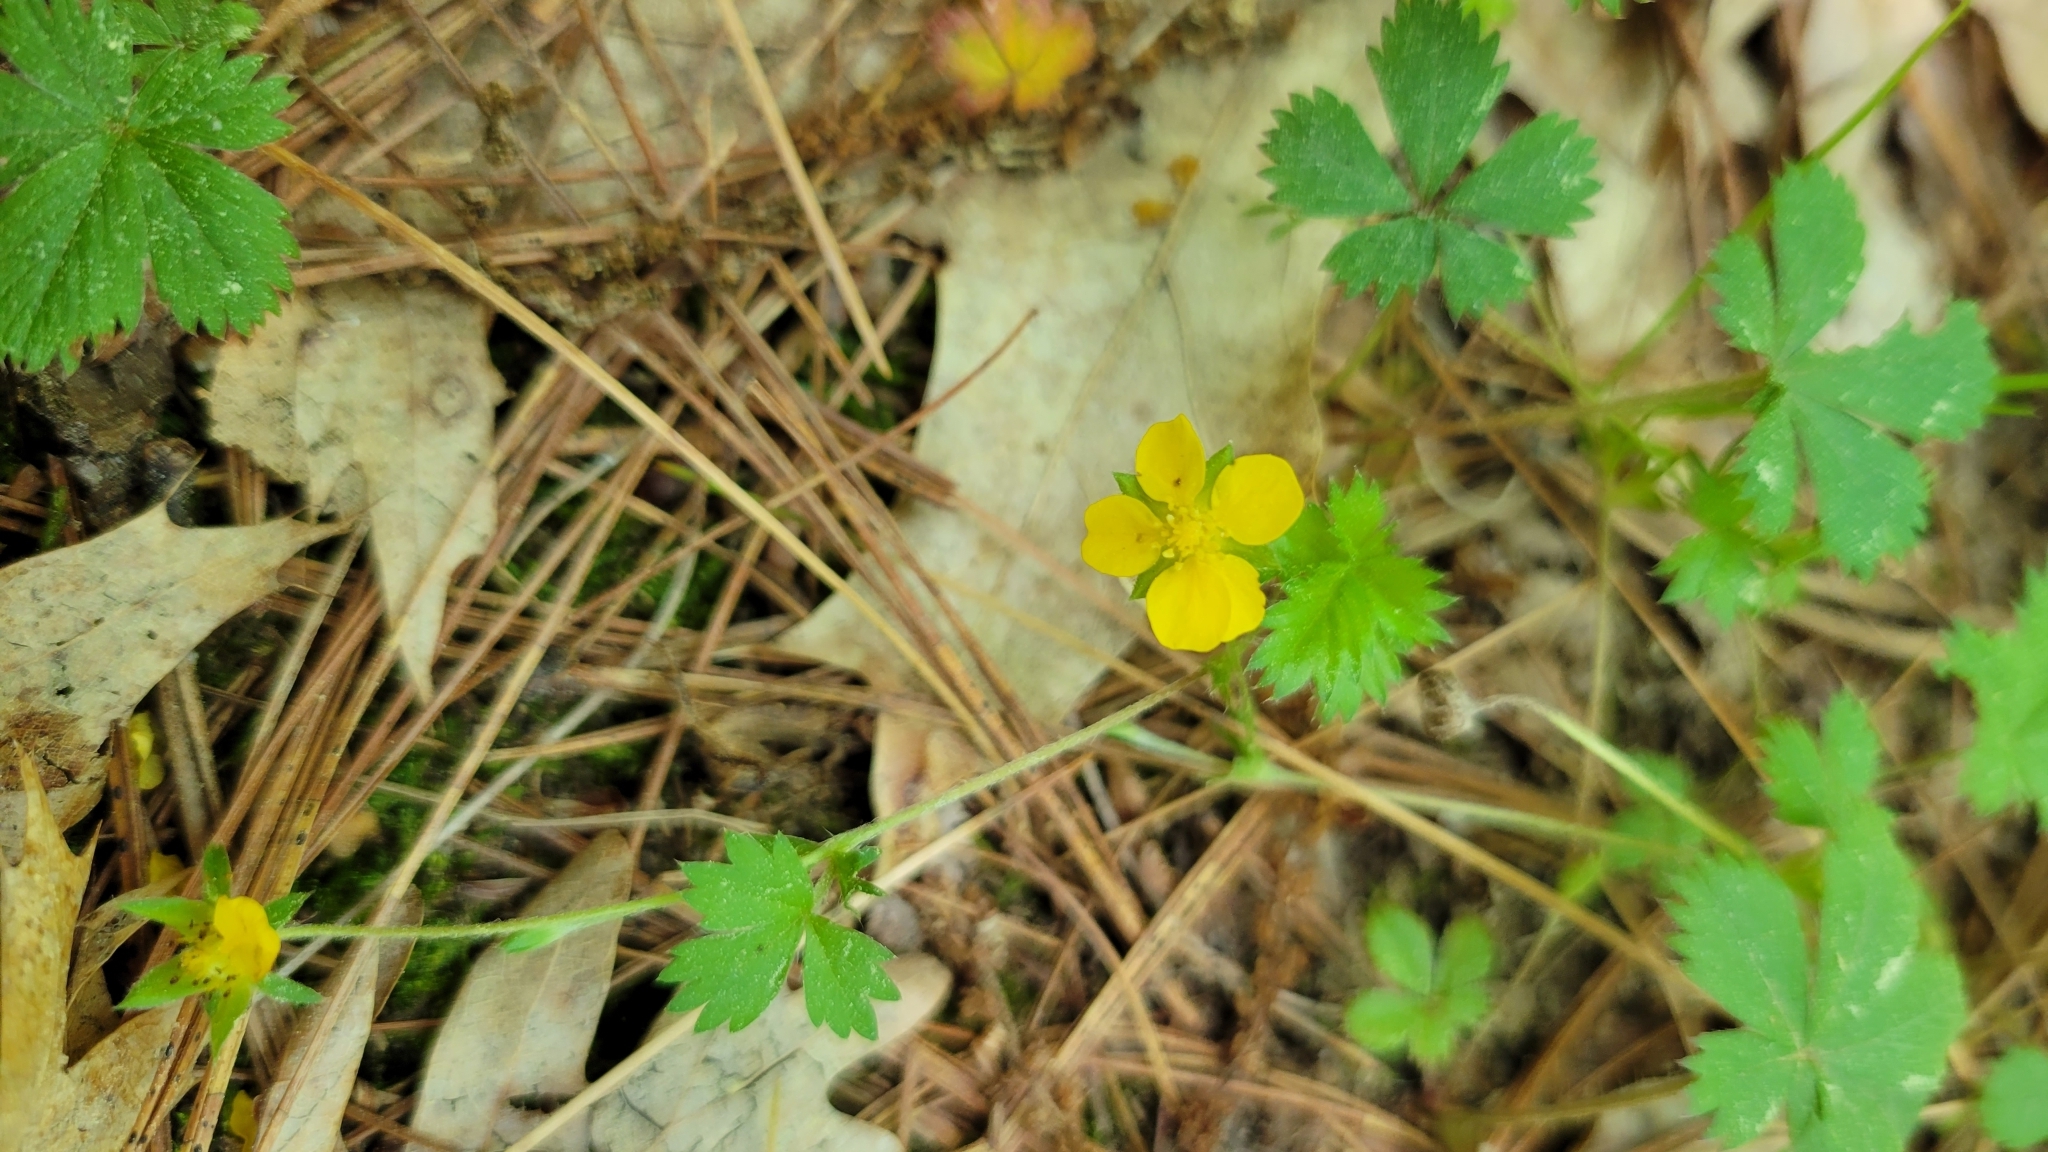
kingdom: Plantae
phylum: Tracheophyta
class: Magnoliopsida
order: Rosales
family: Rosaceae
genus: Potentilla
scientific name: Potentilla canadensis
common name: Canada cinquefoil
